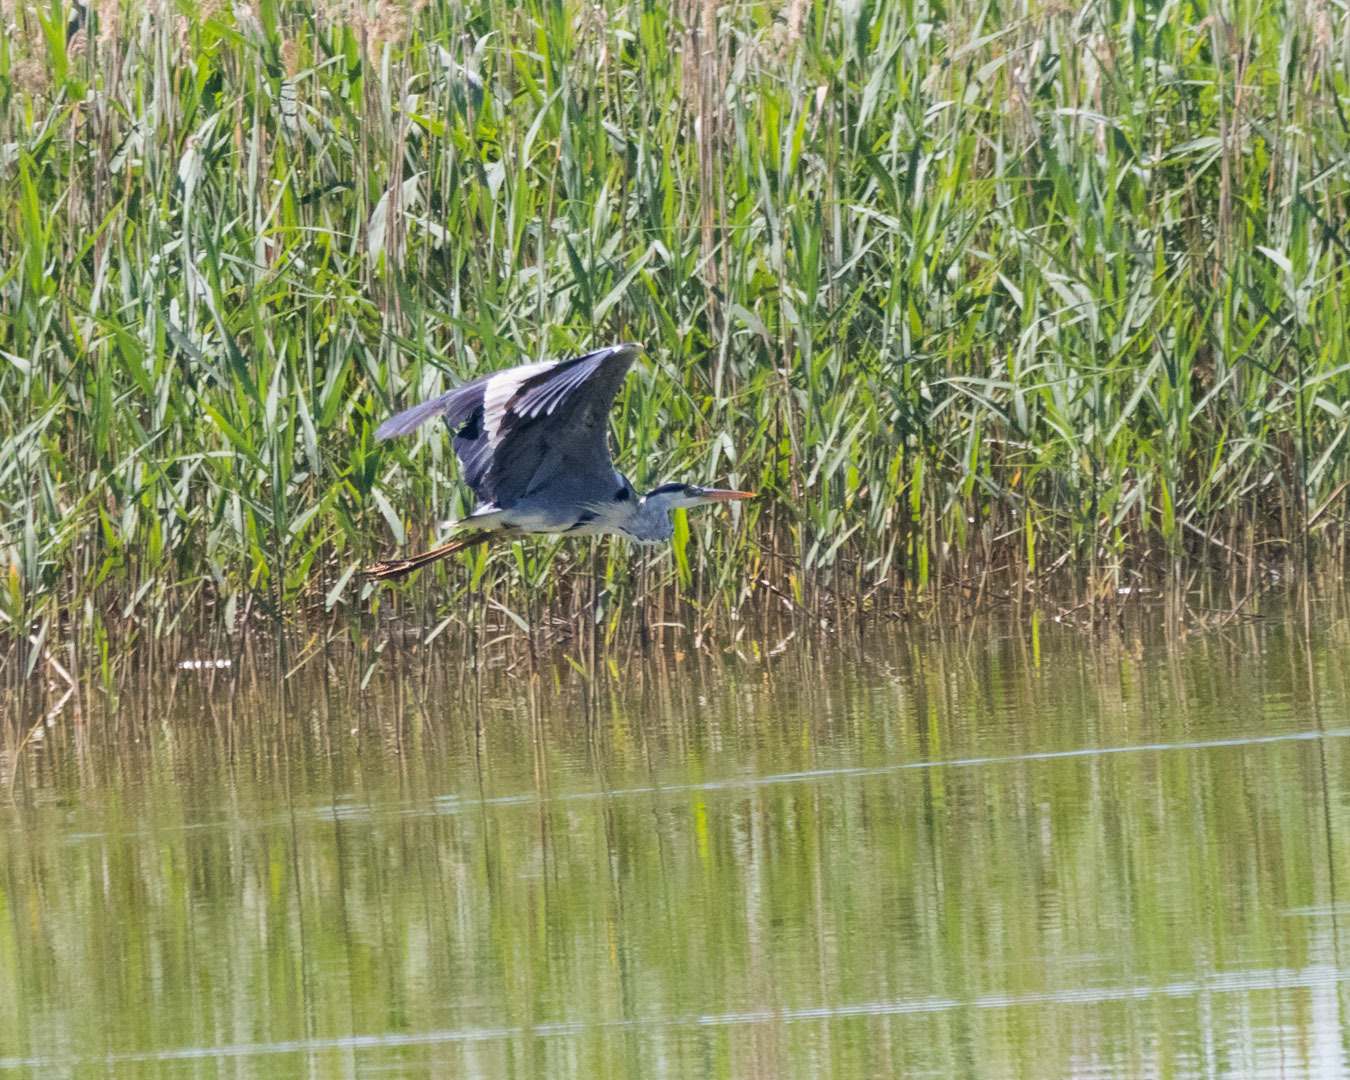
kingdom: Animalia
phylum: Chordata
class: Aves
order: Pelecaniformes
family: Ardeidae
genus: Ardea
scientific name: Ardea cinerea
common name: Grey heron
